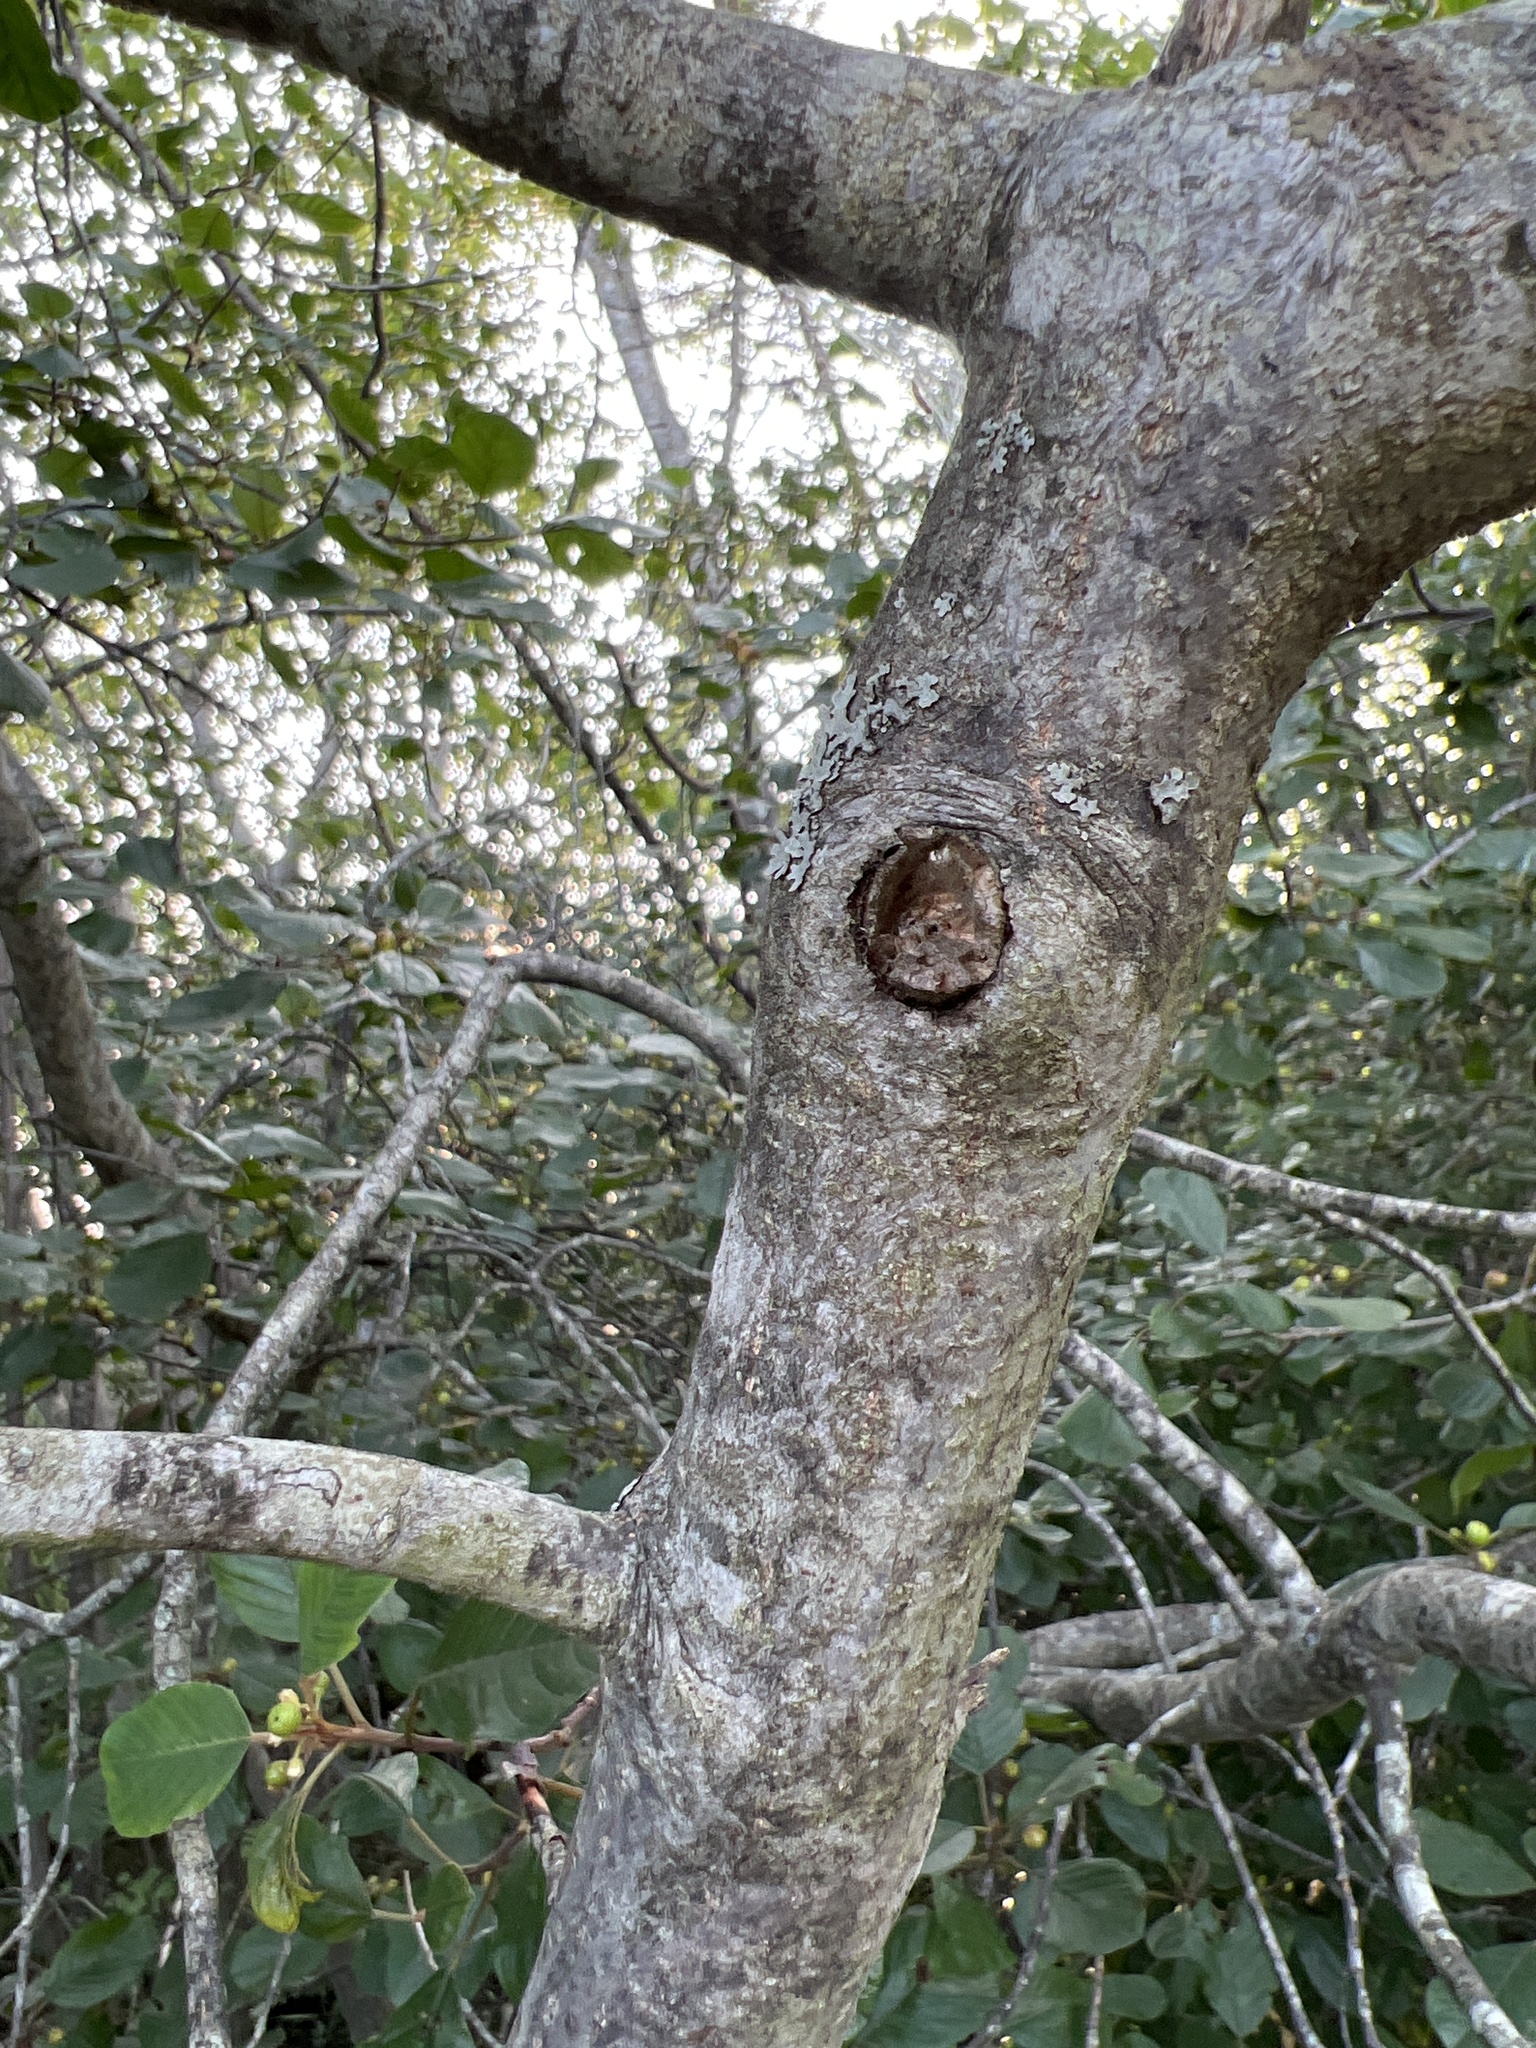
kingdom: Plantae
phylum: Tracheophyta
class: Magnoliopsida
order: Rosales
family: Rhamnaceae
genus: Frangula
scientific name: Frangula alnus
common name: Alder buckthorn
